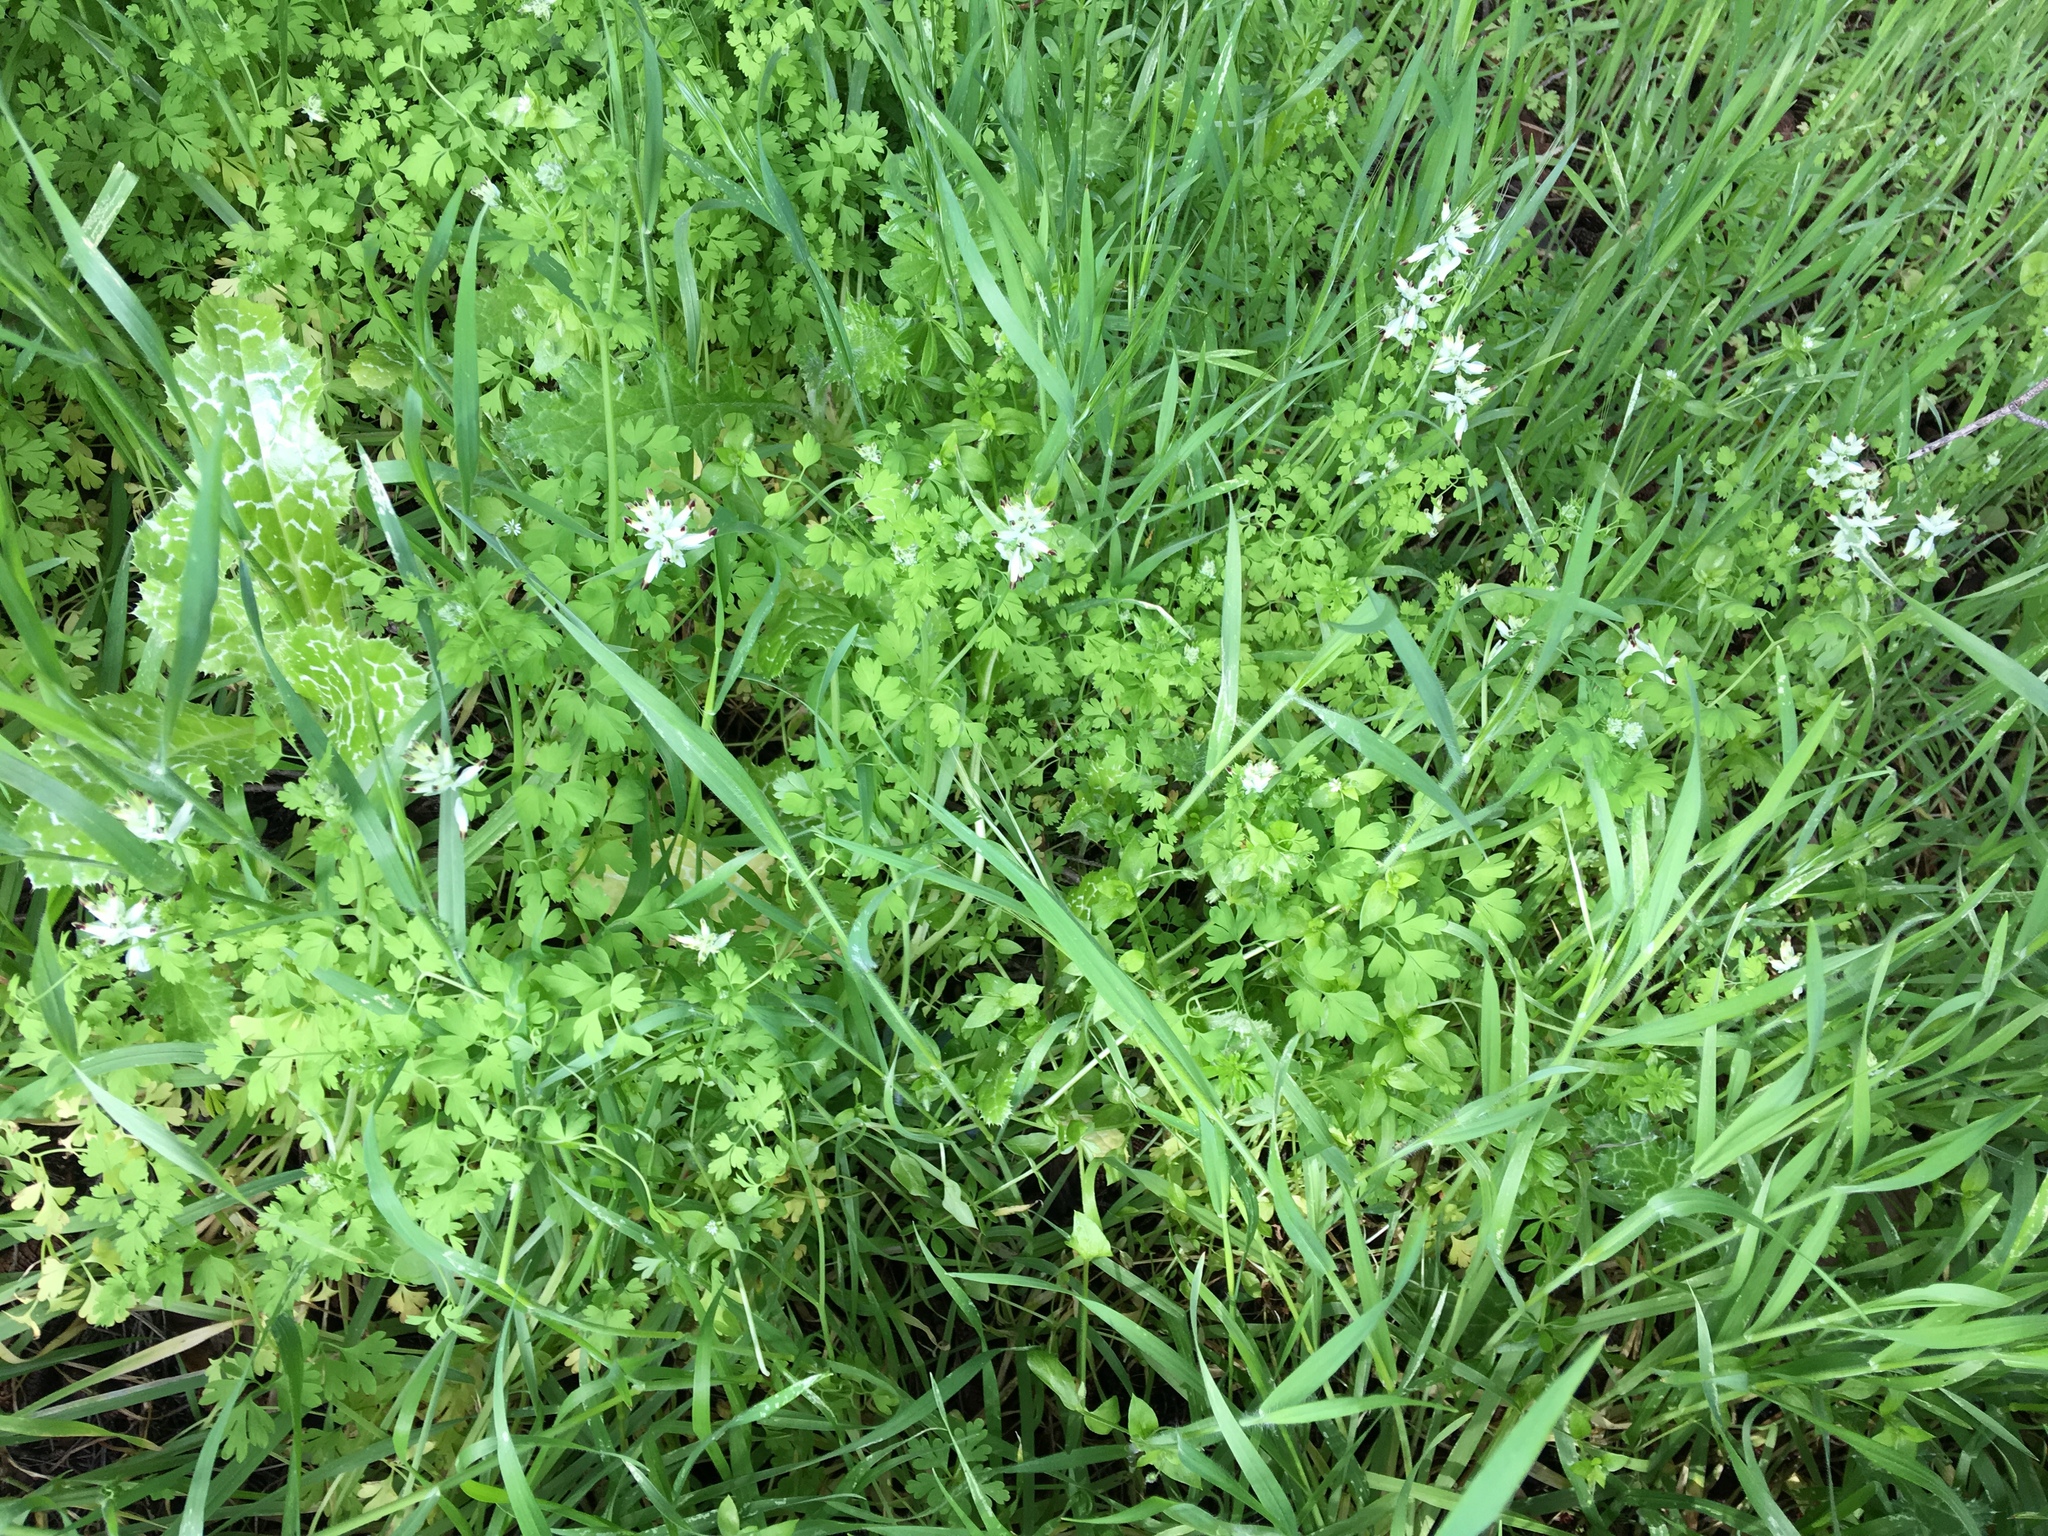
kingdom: Plantae
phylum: Tracheophyta
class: Magnoliopsida
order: Ranunculales
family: Papaveraceae
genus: Fumaria
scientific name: Fumaria capreolata
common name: White ramping-fumitory
